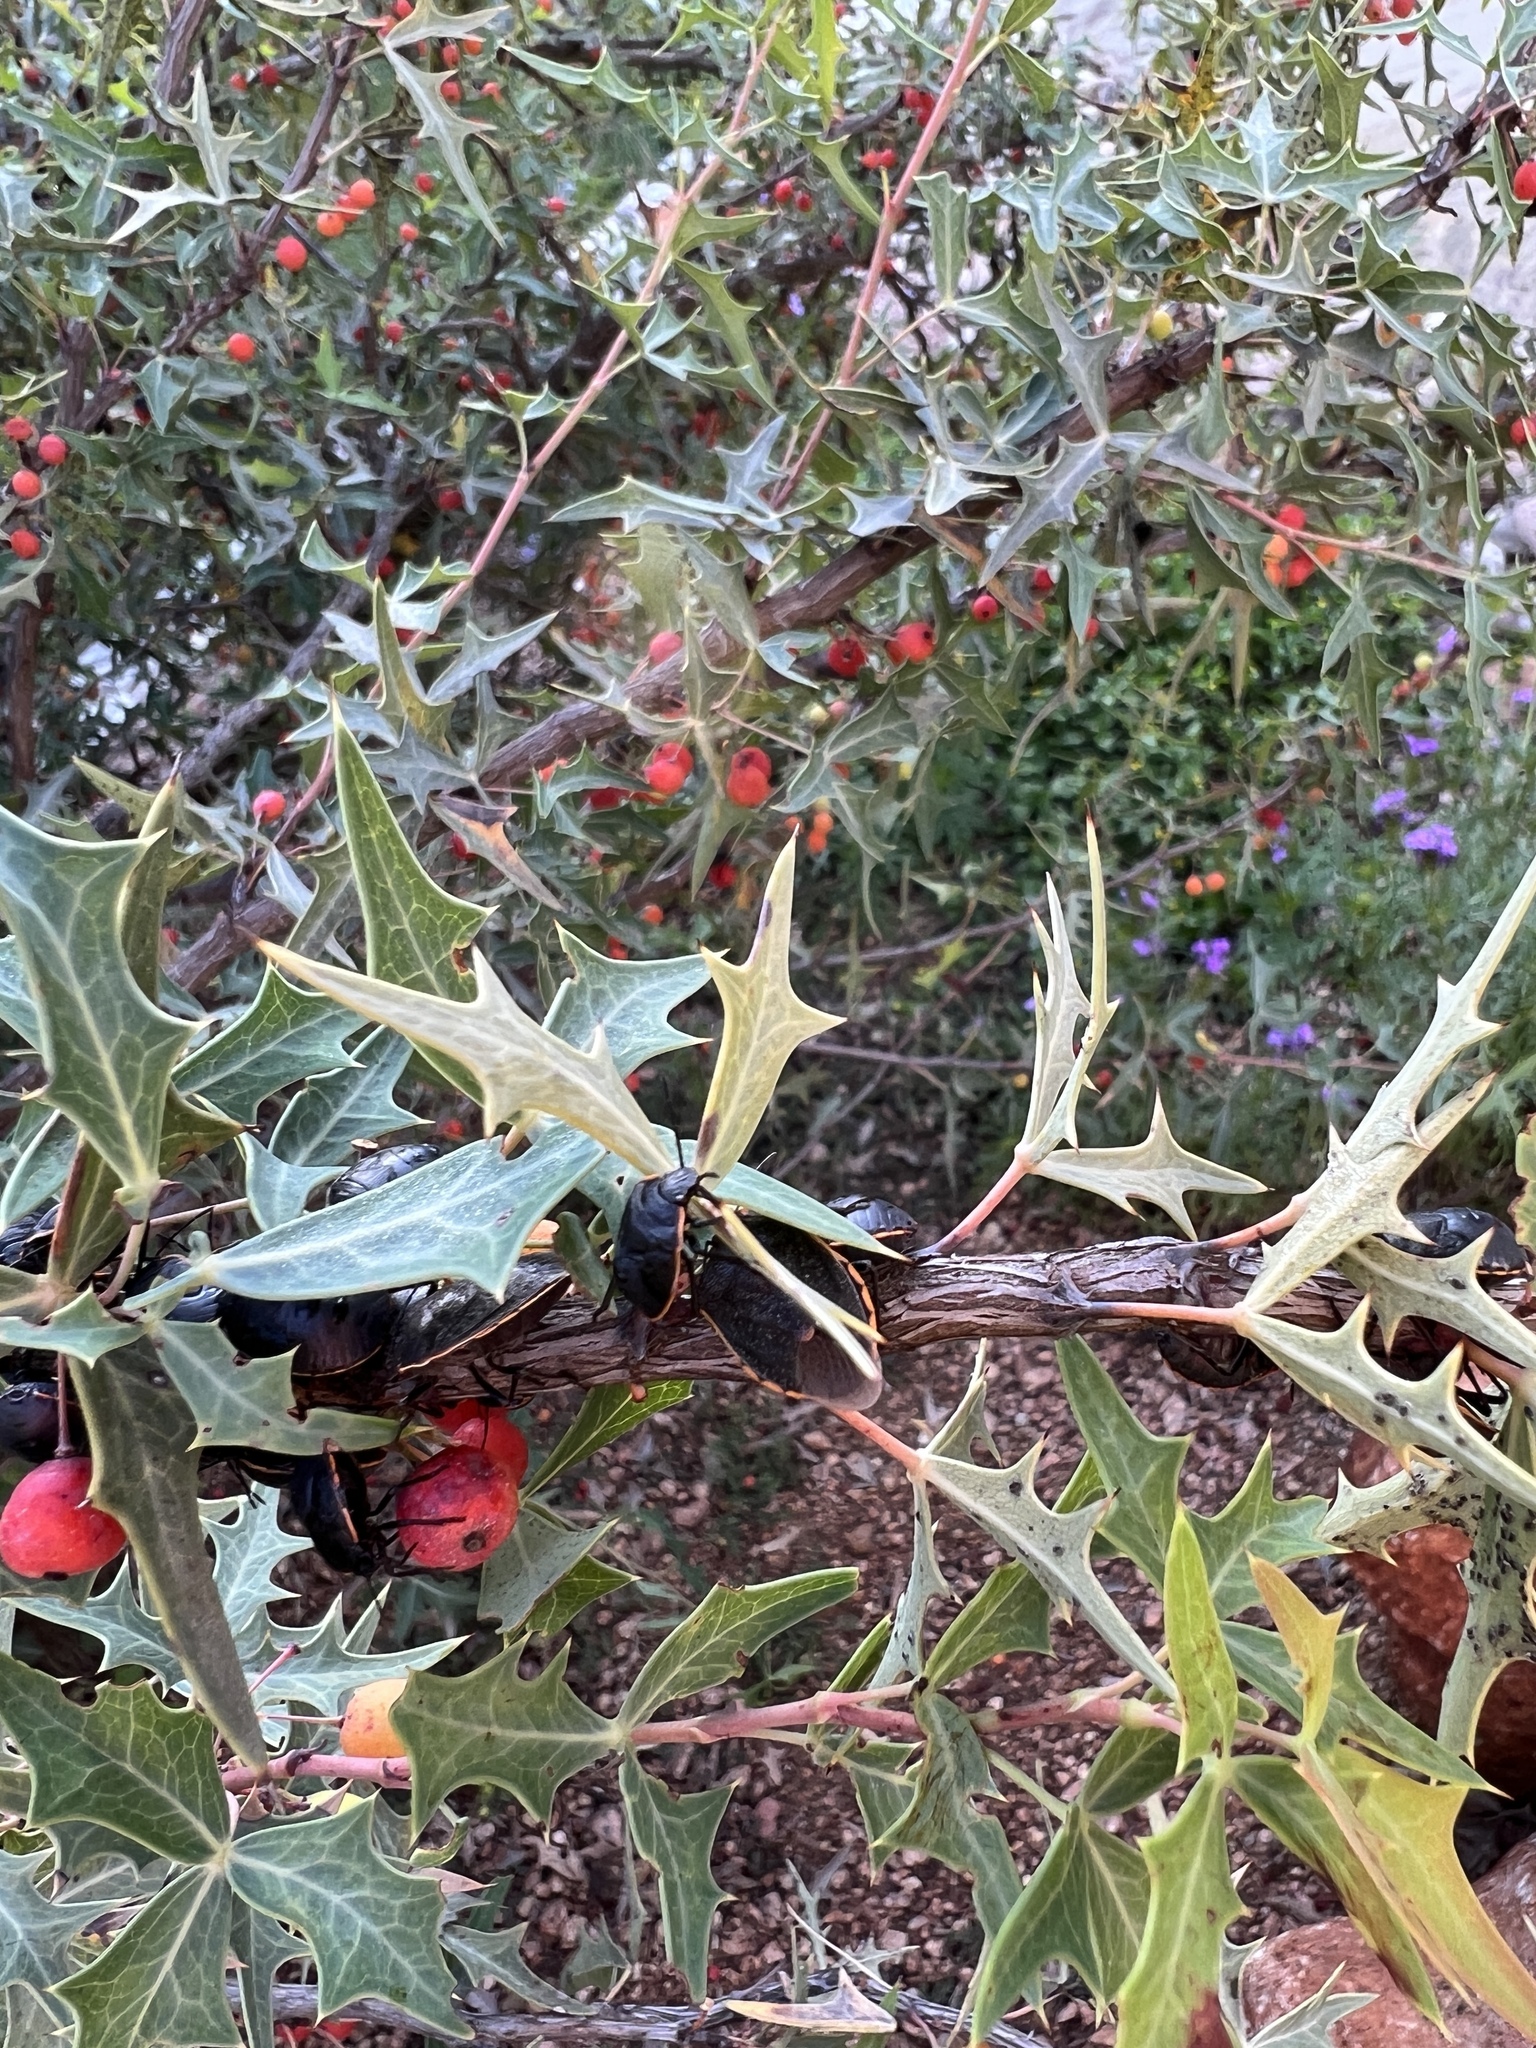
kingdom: Animalia
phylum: Arthropoda
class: Insecta
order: Hemiptera
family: Pentatomidae
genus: Chlorochroa
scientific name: Chlorochroa ligata
